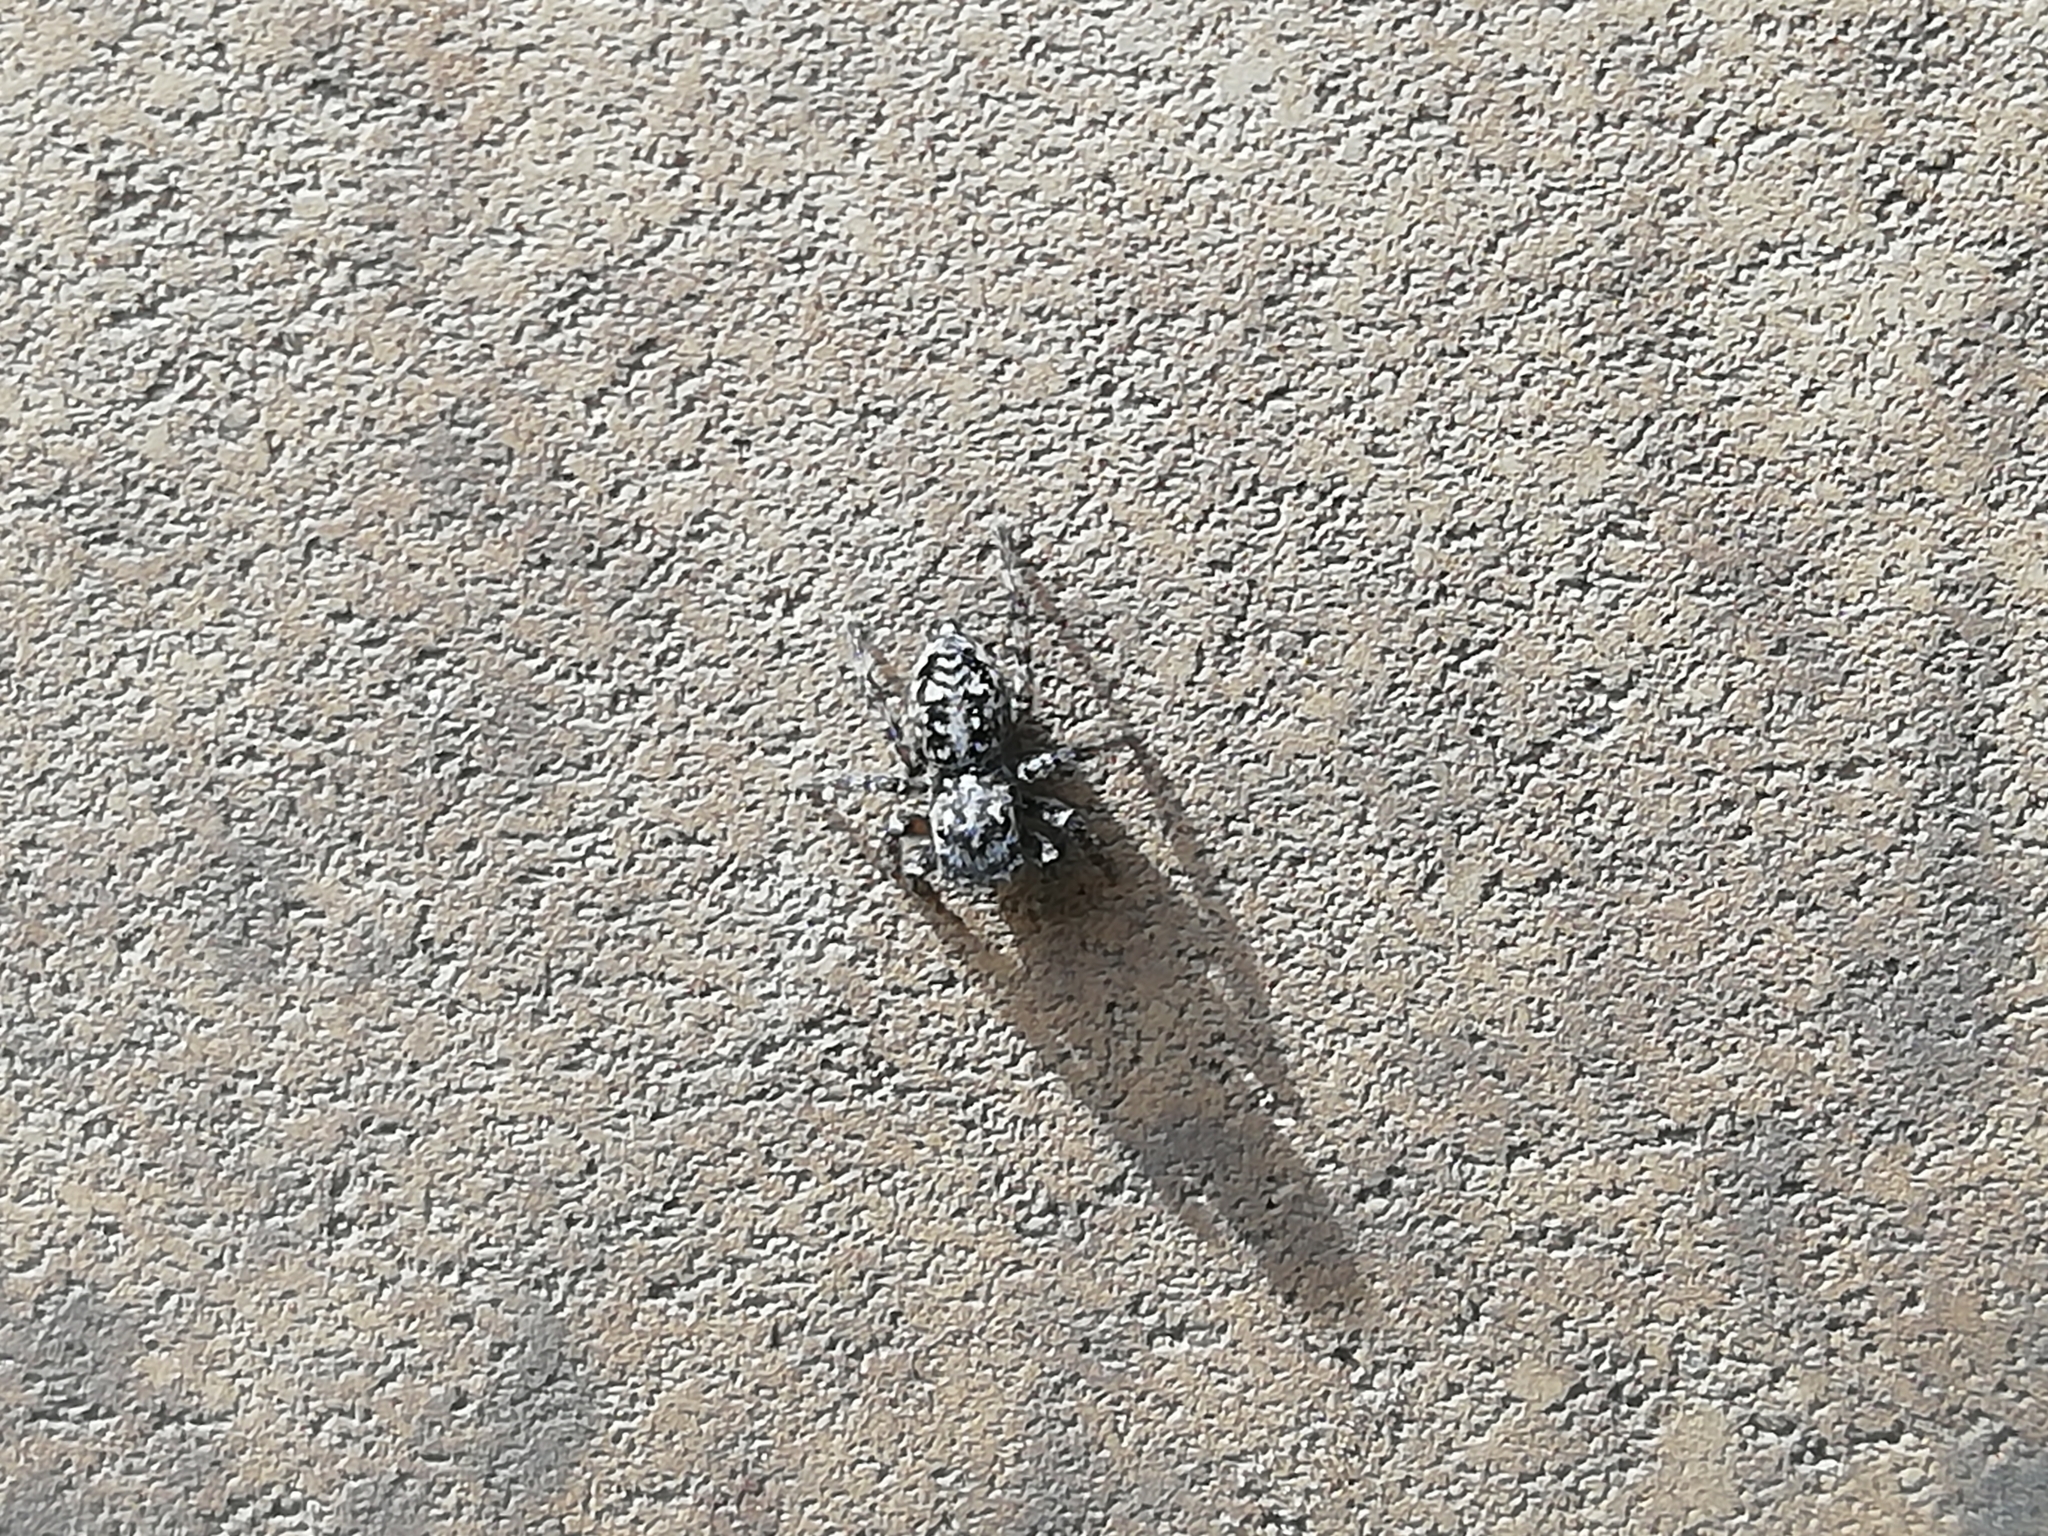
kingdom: Animalia
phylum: Arthropoda
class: Arachnida
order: Araneae
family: Salticidae
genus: Attulus
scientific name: Attulus terebratus
